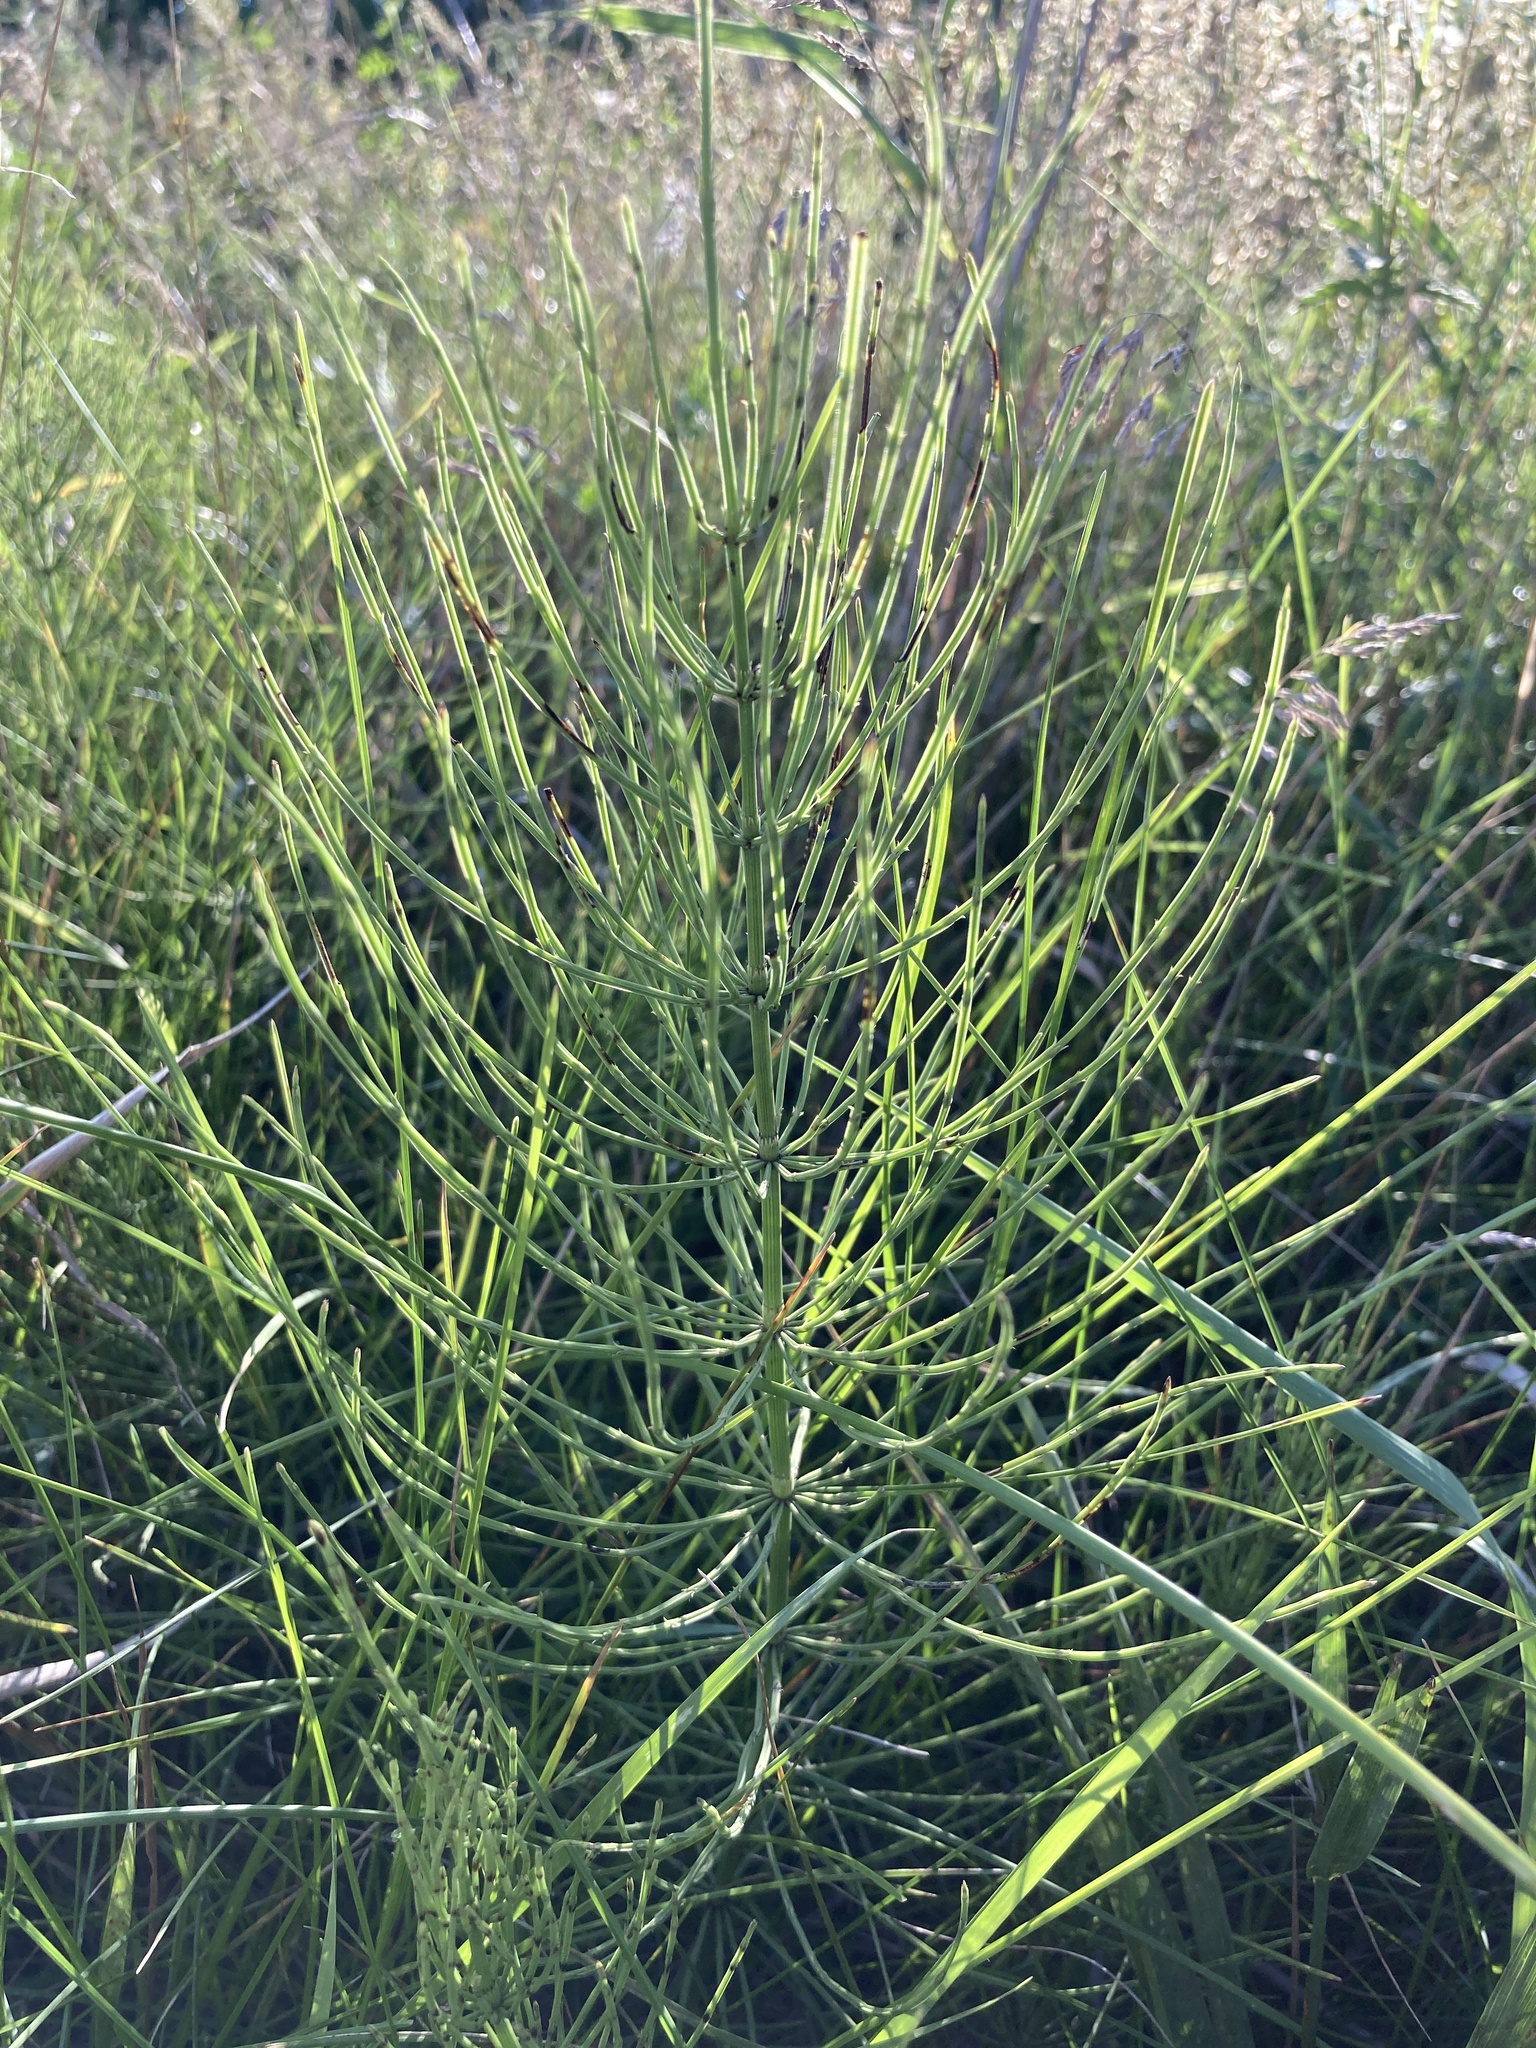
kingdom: Plantae
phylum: Tracheophyta
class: Polypodiopsida
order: Equisetales
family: Equisetaceae
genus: Equisetum
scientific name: Equisetum arvense
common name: Field horsetail
